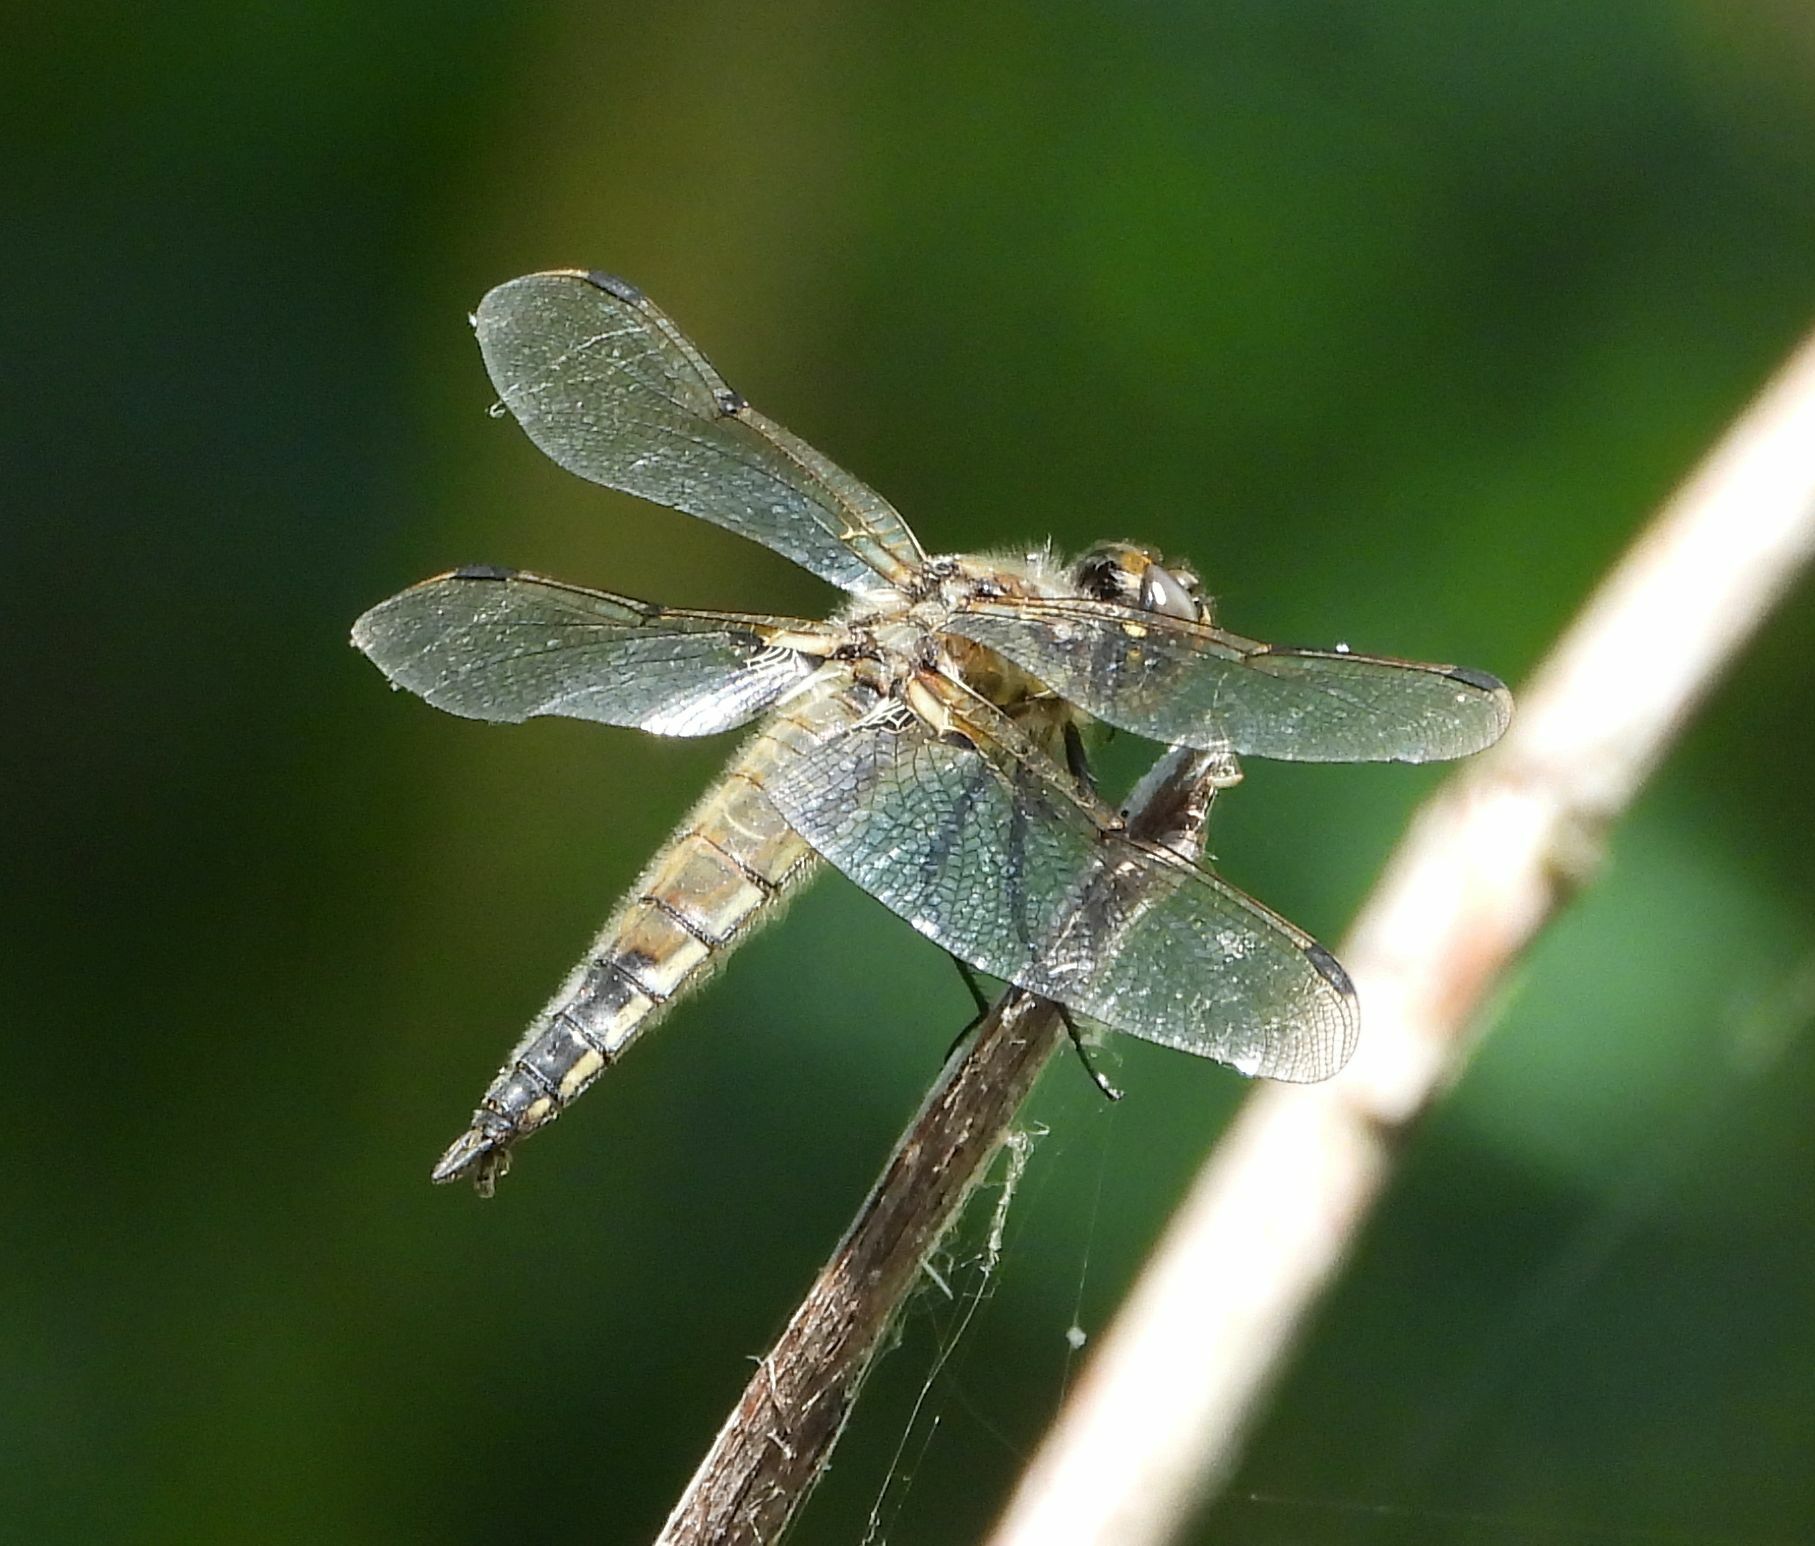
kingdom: Animalia
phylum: Arthropoda
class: Insecta
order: Odonata
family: Libellulidae
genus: Libellula
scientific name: Libellula quadrimaculata
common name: Four-spotted chaser
